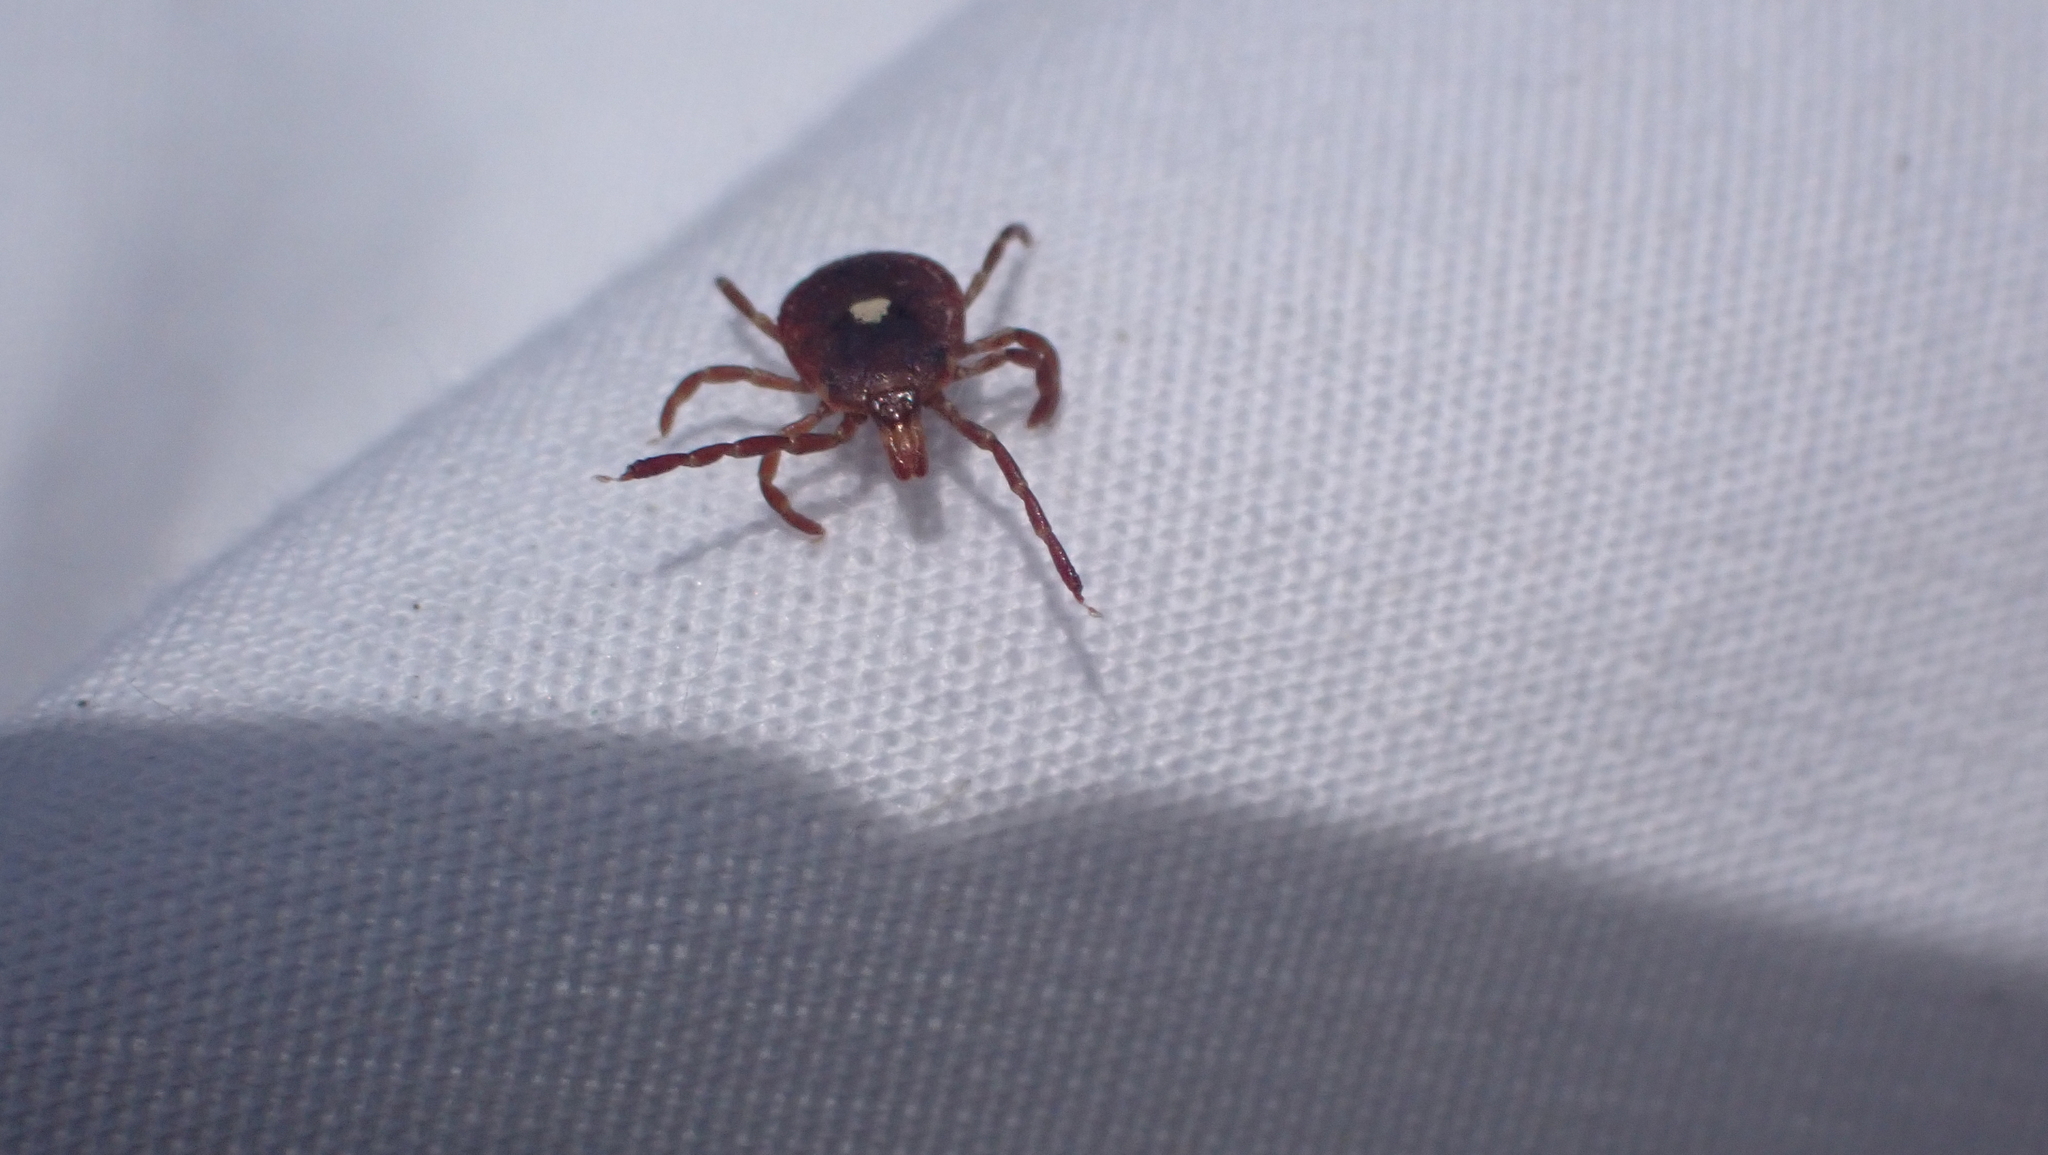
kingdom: Animalia
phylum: Arthropoda
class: Arachnida
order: Ixodida
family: Ixodidae
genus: Amblyomma
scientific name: Amblyomma americanum
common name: Lone star tick
